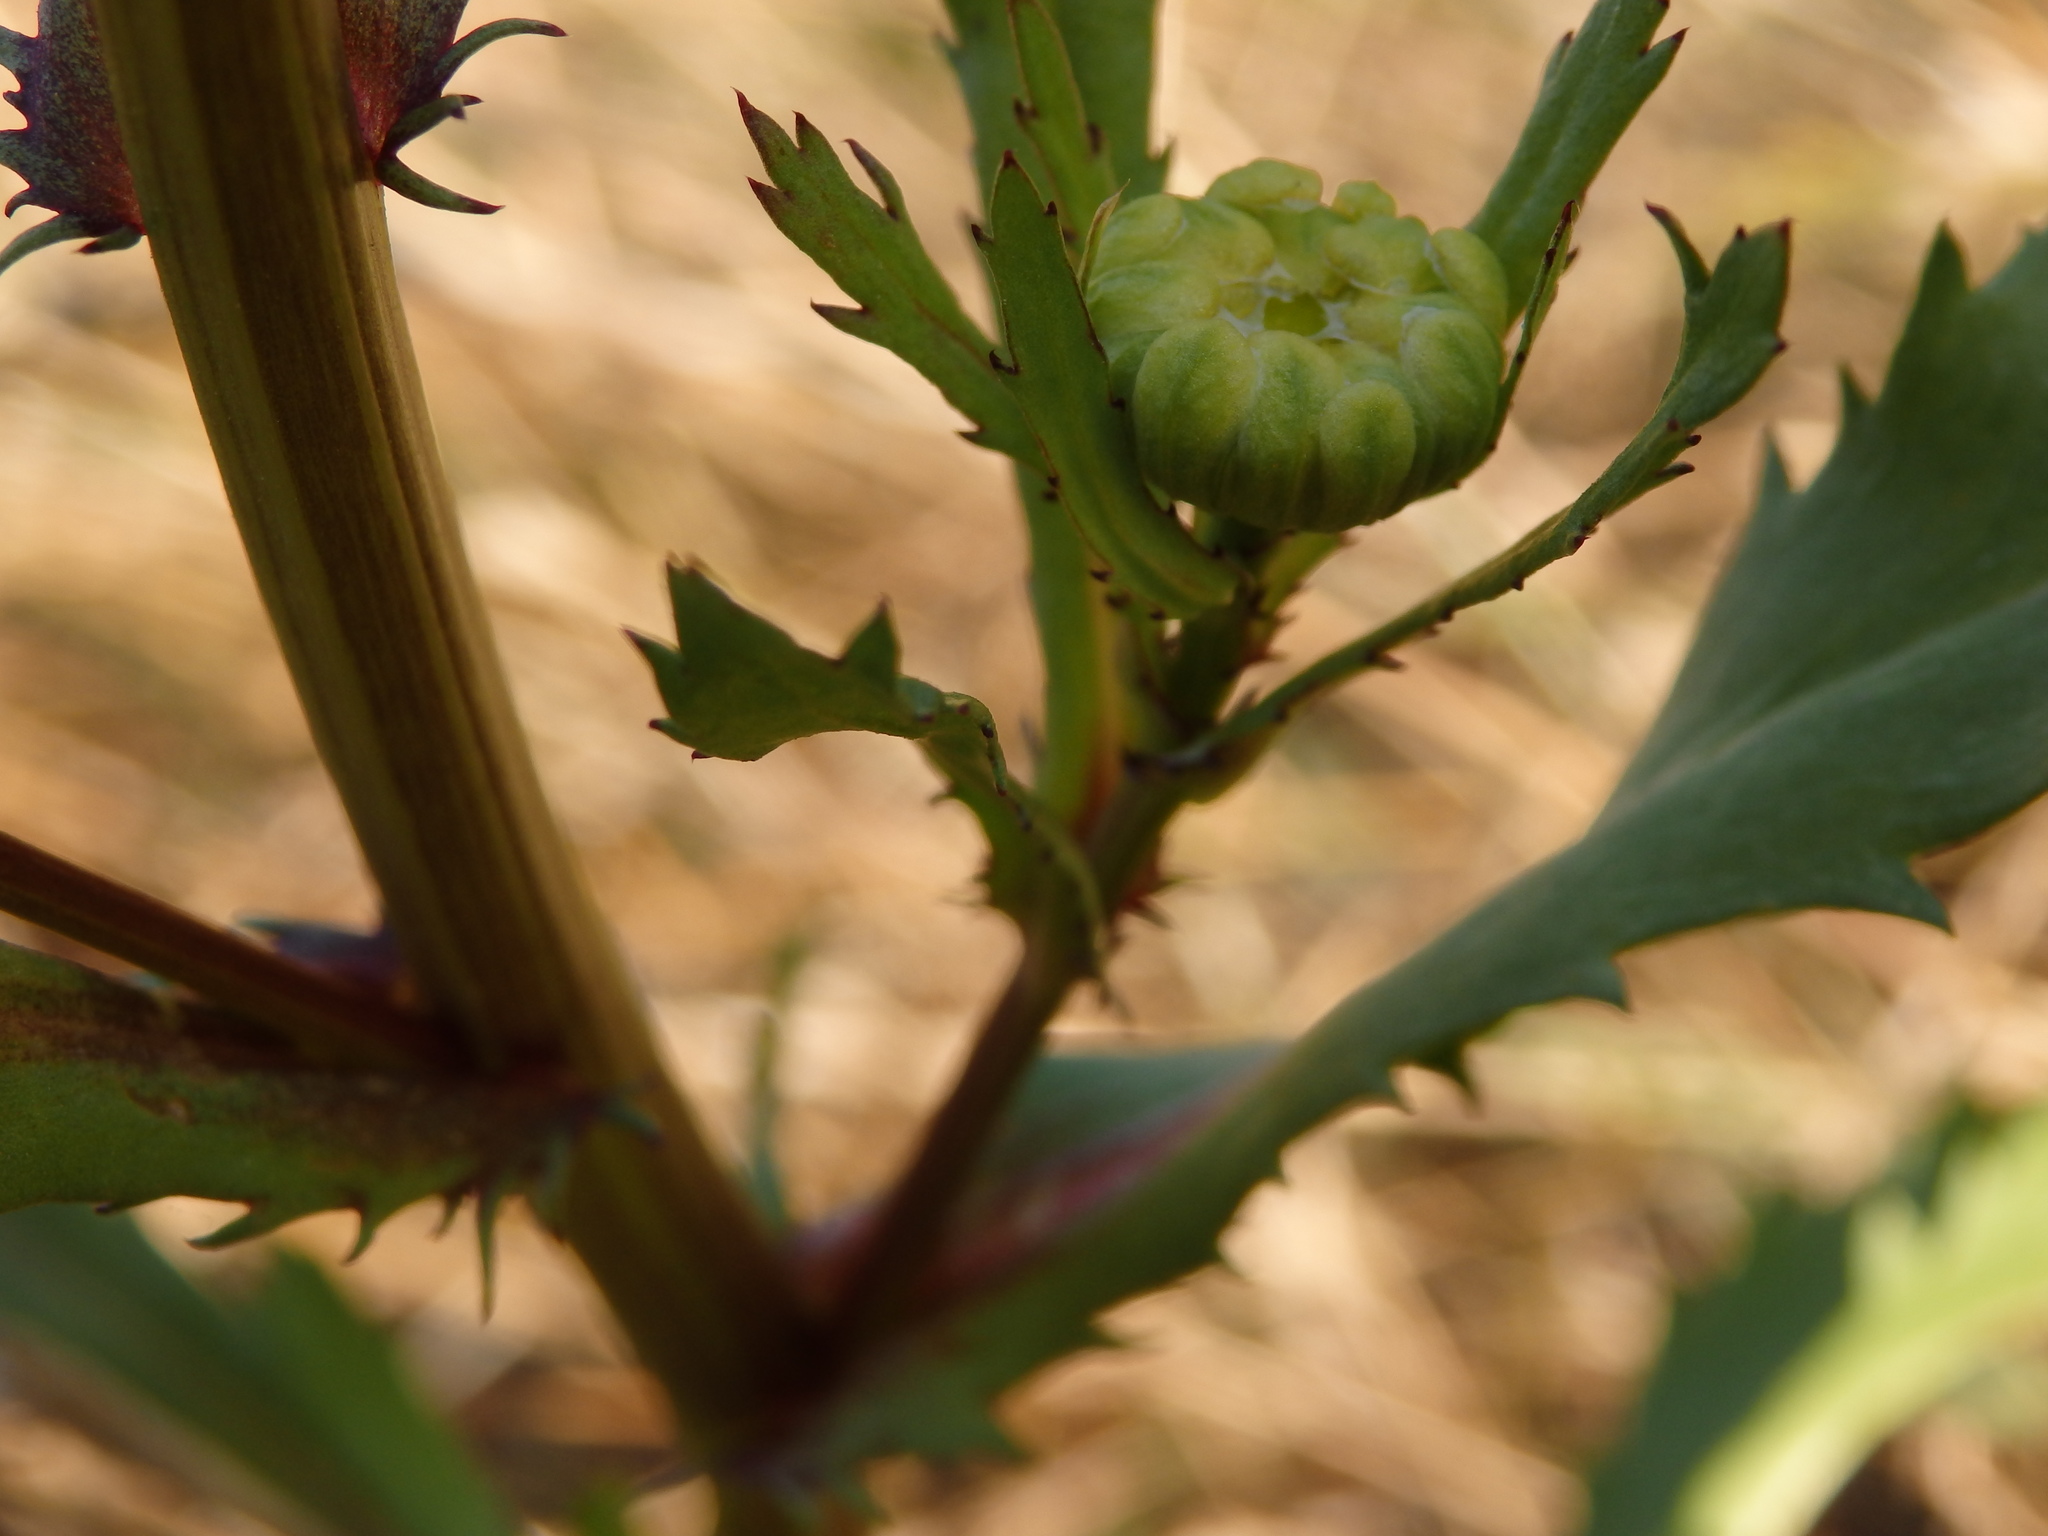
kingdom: Plantae
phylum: Tracheophyta
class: Magnoliopsida
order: Asterales
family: Asteraceae
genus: Lepidophorum
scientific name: Lepidophorum repandum
